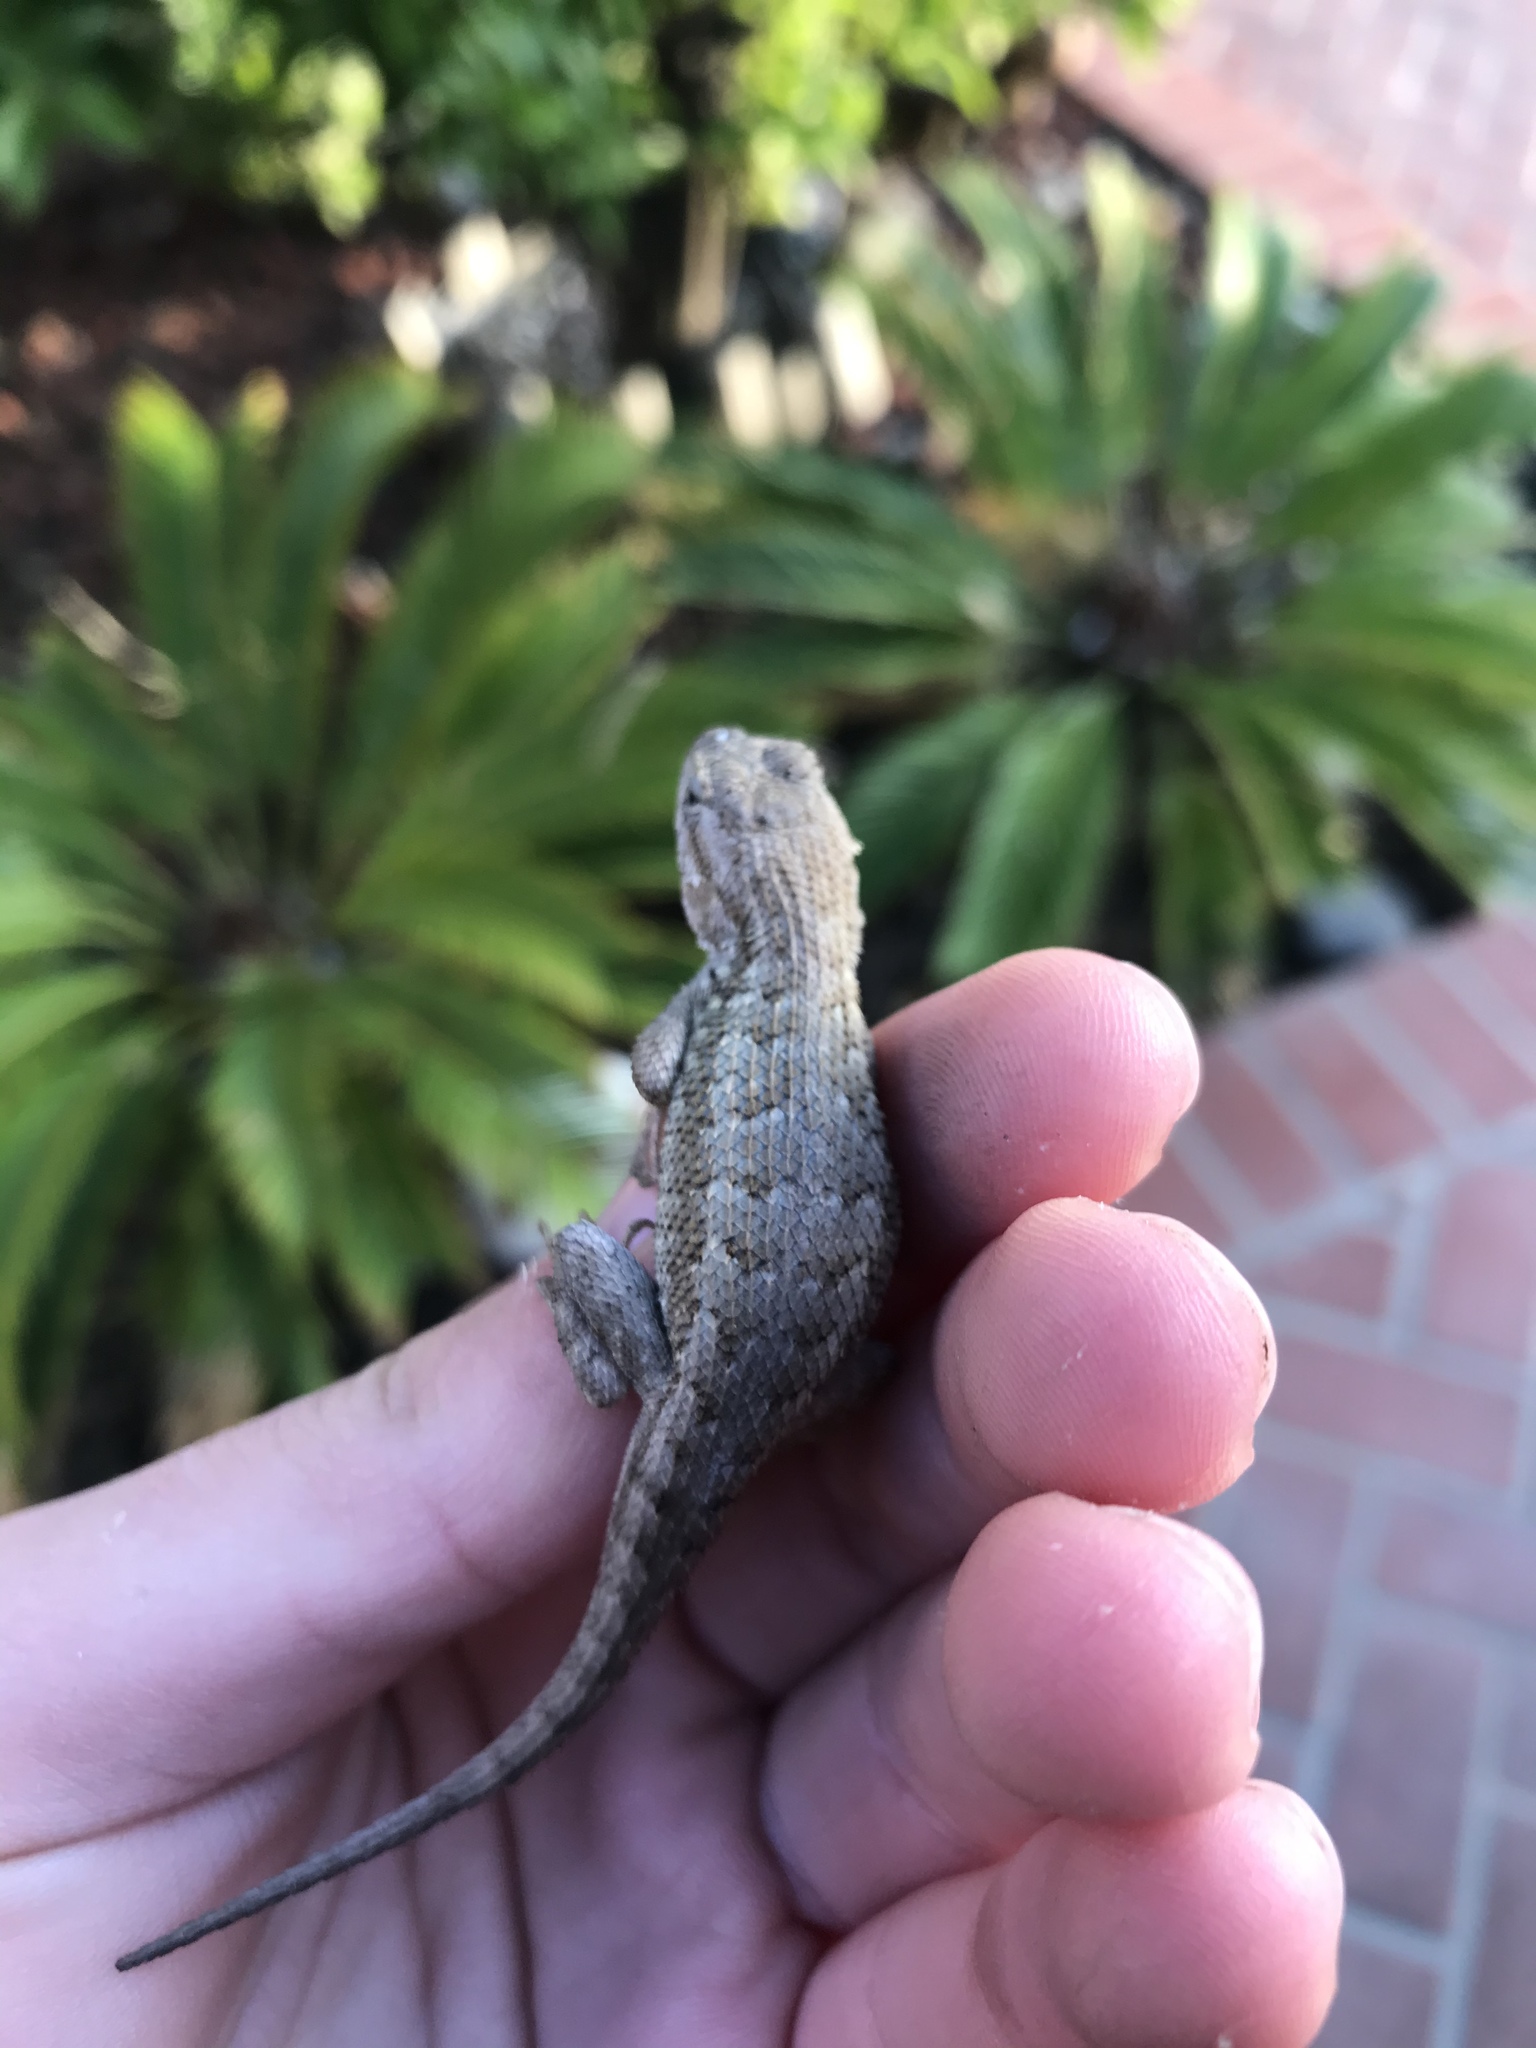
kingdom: Animalia
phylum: Chordata
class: Squamata
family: Phrynosomatidae
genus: Sceloporus
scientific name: Sceloporus occidentalis
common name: Western fence lizard
